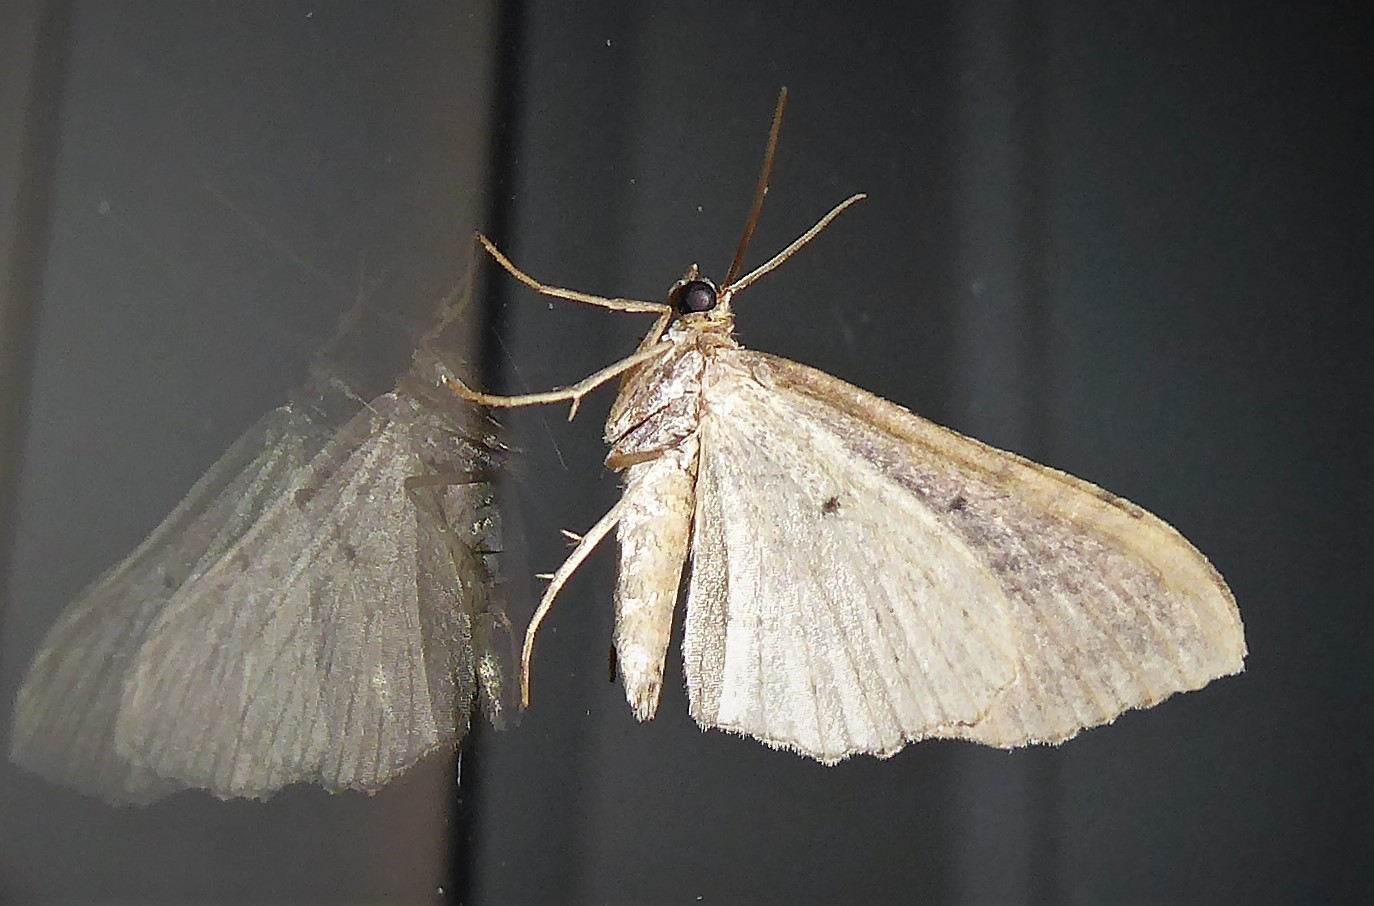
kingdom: Animalia
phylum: Arthropoda
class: Insecta
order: Lepidoptera
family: Geometridae
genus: Austrocidaria
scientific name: Austrocidaria gobiata
